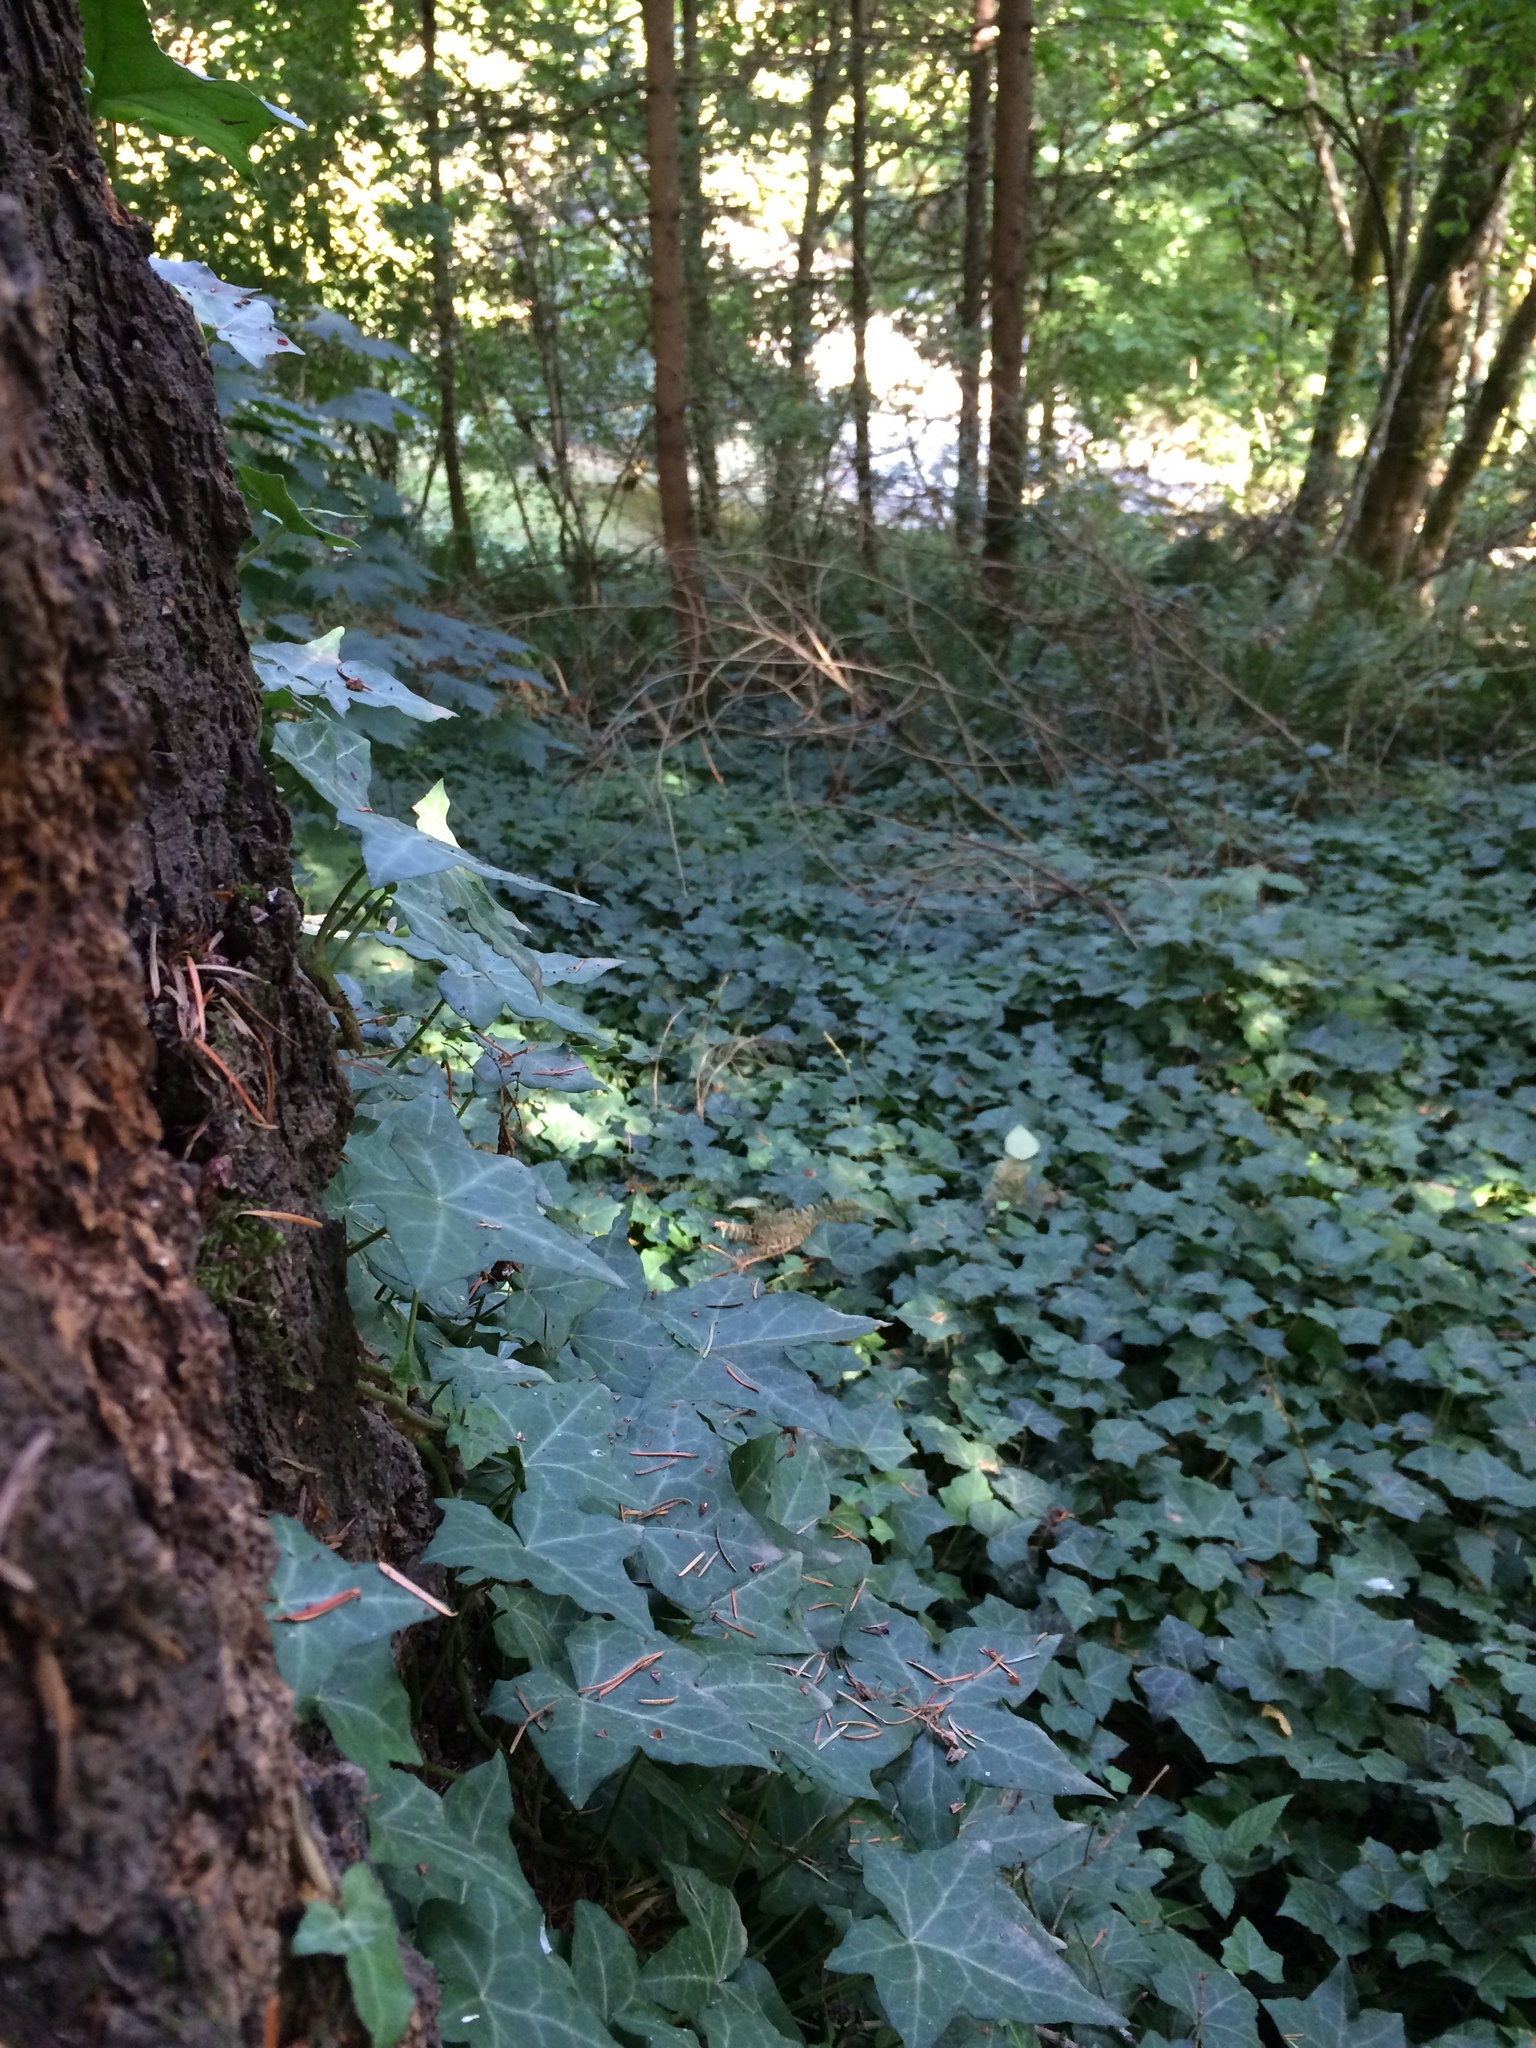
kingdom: Plantae
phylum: Tracheophyta
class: Magnoliopsida
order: Apiales
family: Araliaceae
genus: Hedera
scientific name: Hedera helix
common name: Ivy
